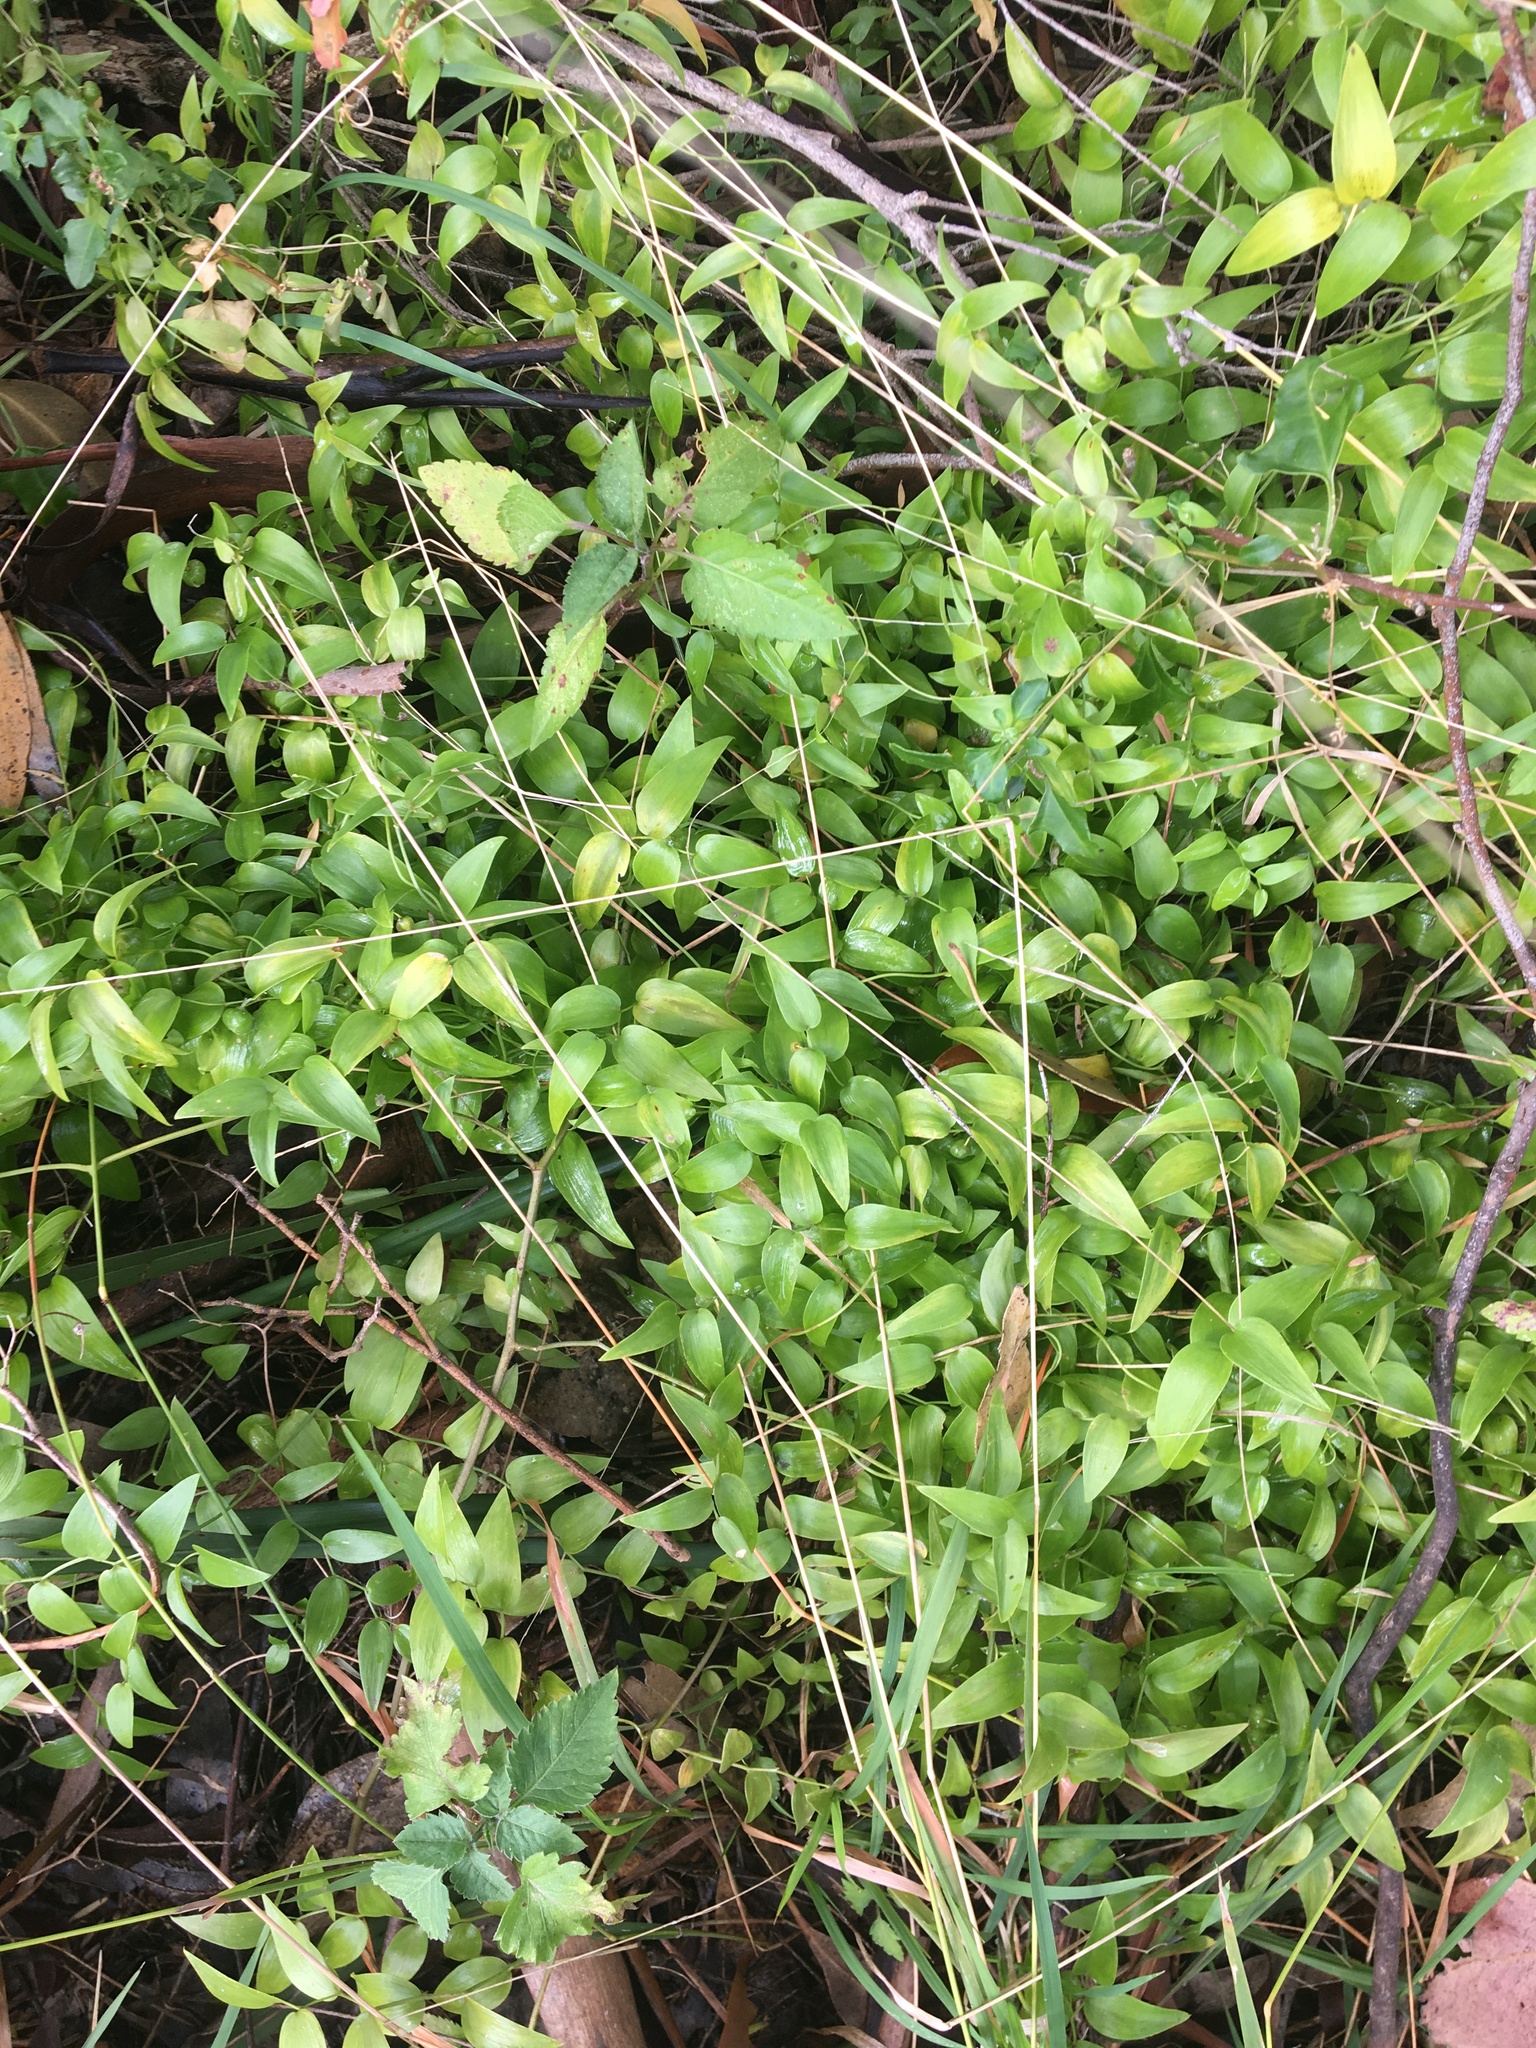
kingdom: Plantae
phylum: Tracheophyta
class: Liliopsida
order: Asparagales
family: Asparagaceae
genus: Asparagus
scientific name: Asparagus asparagoides
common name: African asparagus fern
